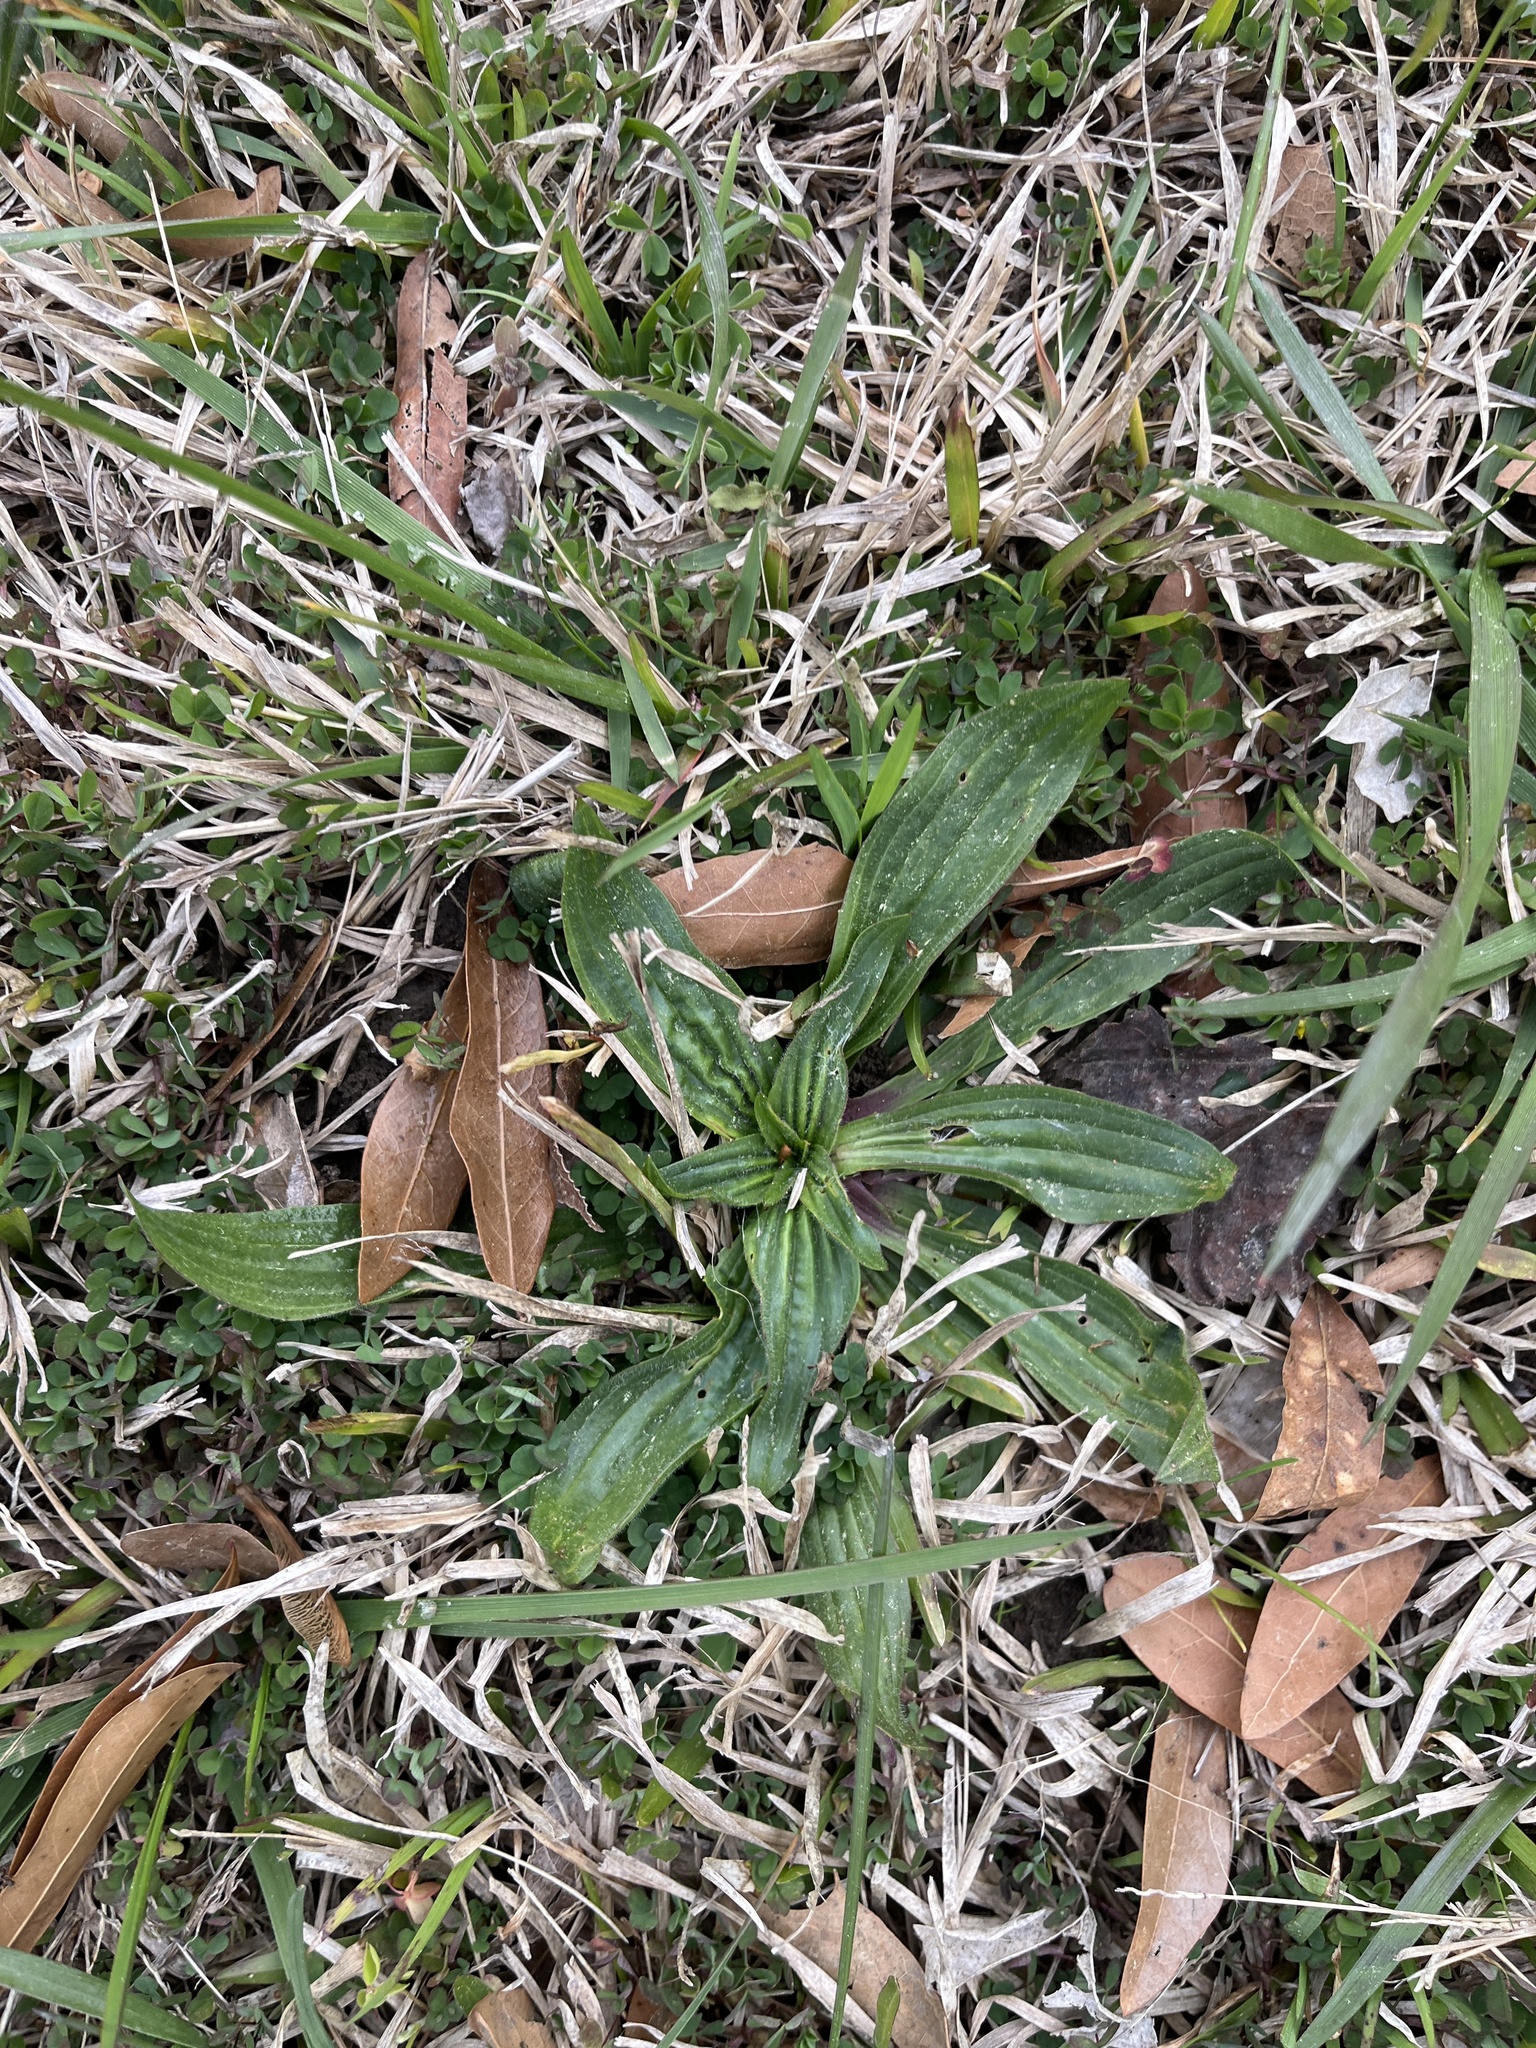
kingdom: Plantae
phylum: Tracheophyta
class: Magnoliopsida
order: Lamiales
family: Plantaginaceae
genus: Plantago
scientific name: Plantago lanceolata
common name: Ribwort plantain
